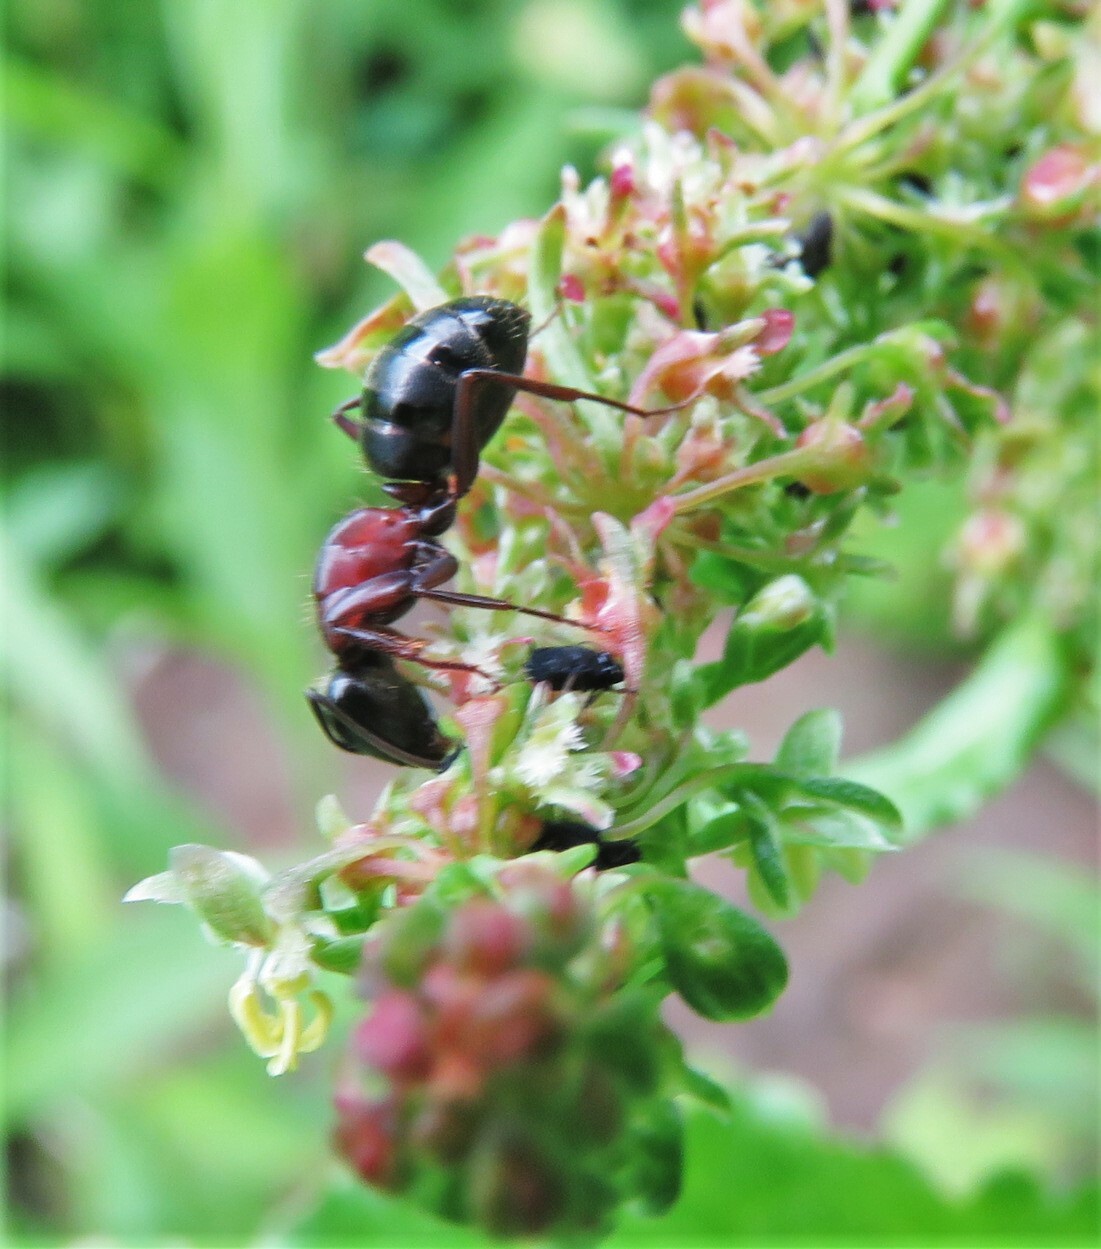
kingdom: Animalia
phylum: Arthropoda
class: Insecta
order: Hymenoptera
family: Formicidae
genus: Camponotus
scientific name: Camponotus novaeboracensis
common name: New york carpenter ant
